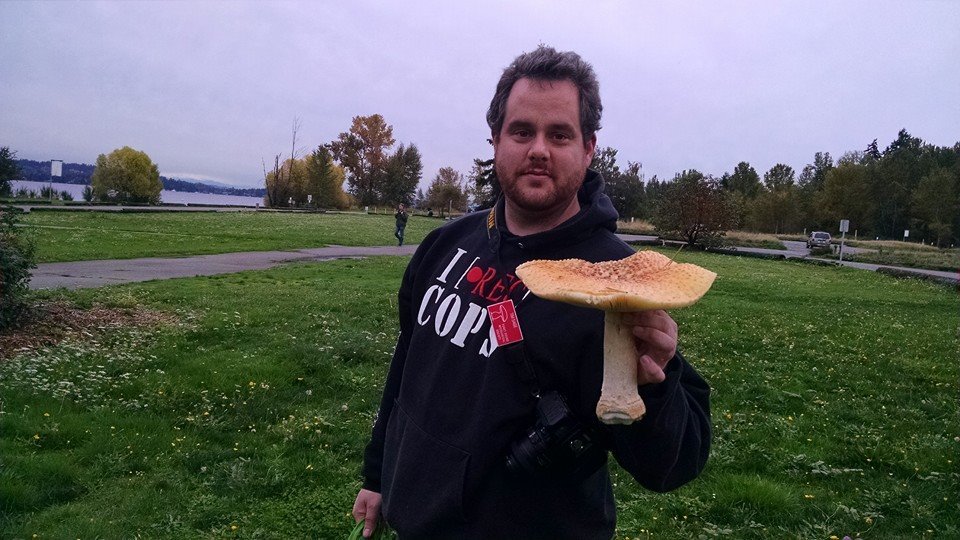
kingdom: Fungi
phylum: Basidiomycota
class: Agaricomycetes
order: Agaricales
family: Amanitaceae
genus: Amanita
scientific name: Amanita muscaria
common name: Fly agaric
